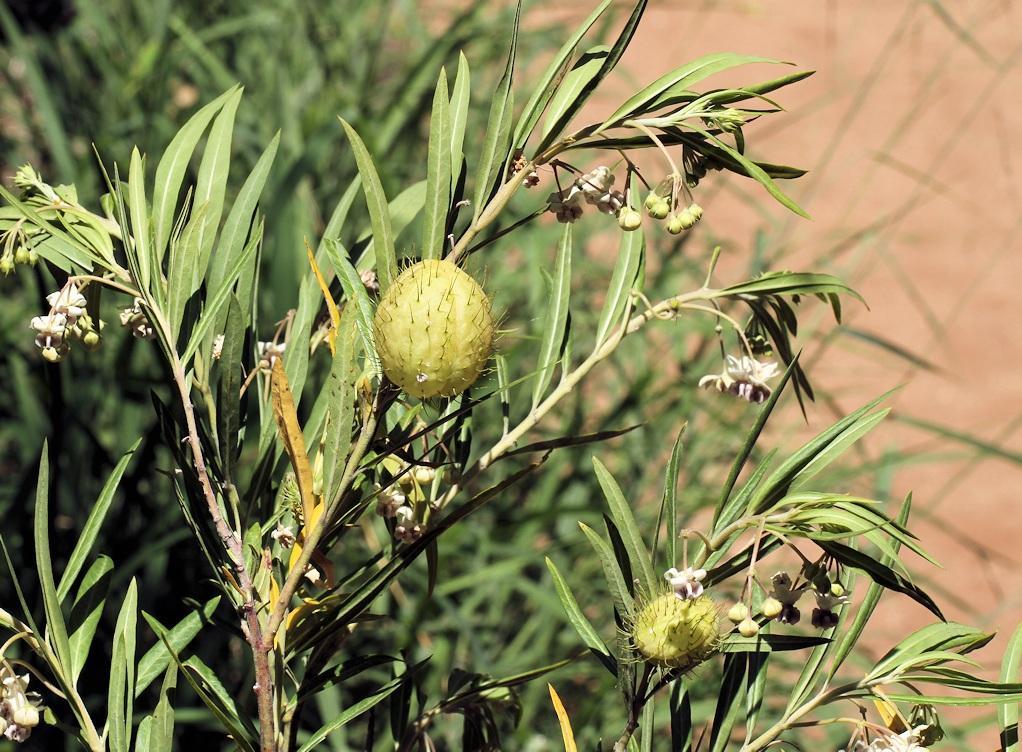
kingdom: Plantae
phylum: Tracheophyta
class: Magnoliopsida
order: Gentianales
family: Apocynaceae
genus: Gomphocarpus
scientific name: Gomphocarpus physocarpus
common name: Balloon cotton bush
